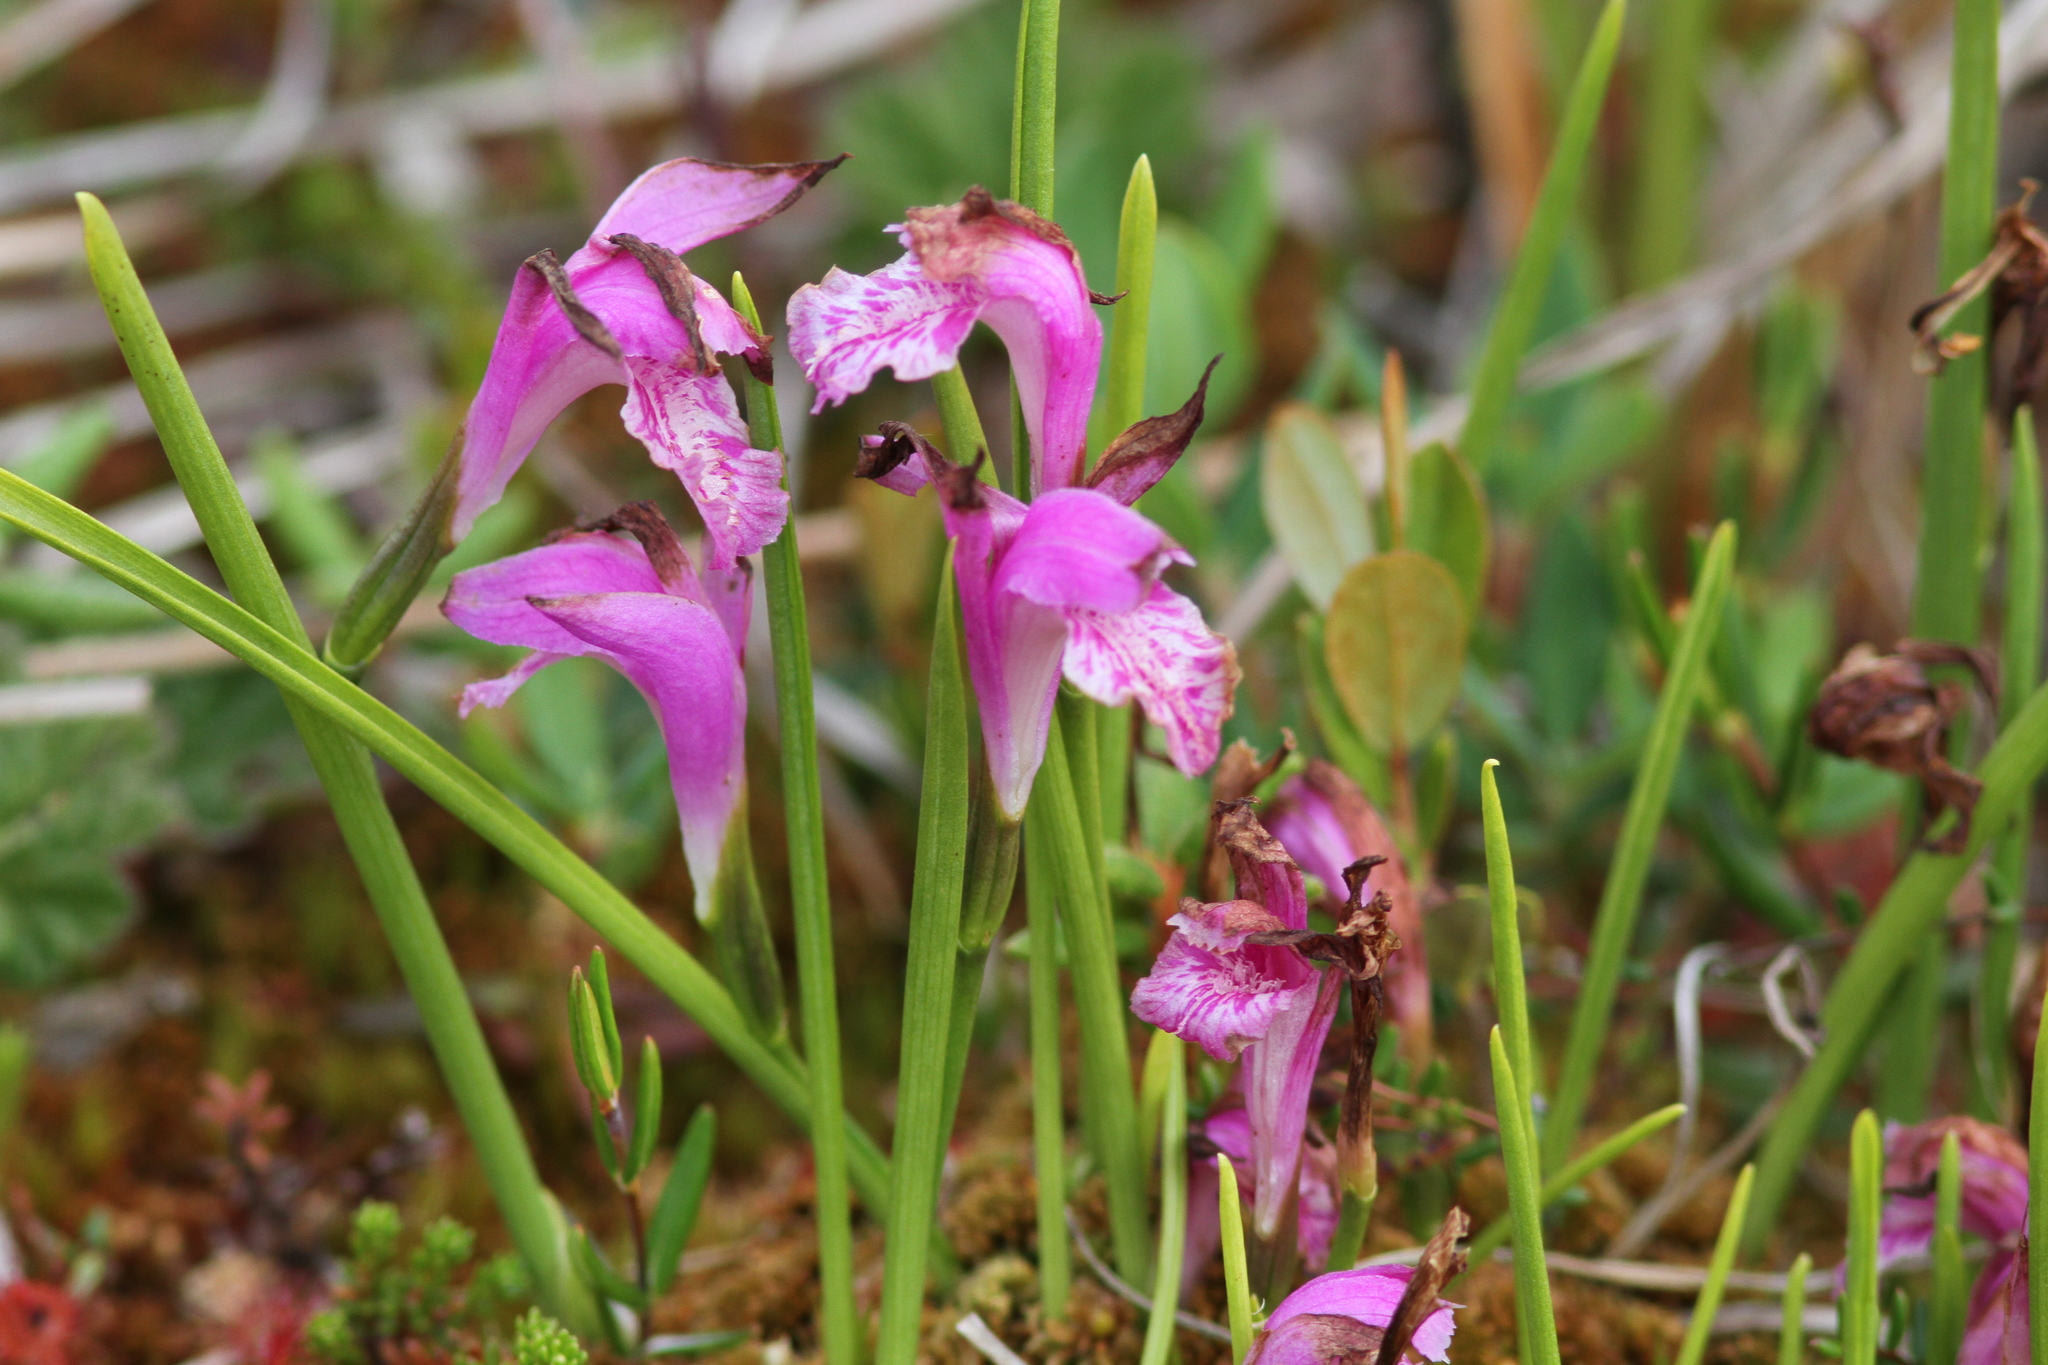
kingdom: Plantae
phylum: Tracheophyta
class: Liliopsida
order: Asparagales
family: Orchidaceae
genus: Arethusa
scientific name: Arethusa bulbosa
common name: Arethusa
